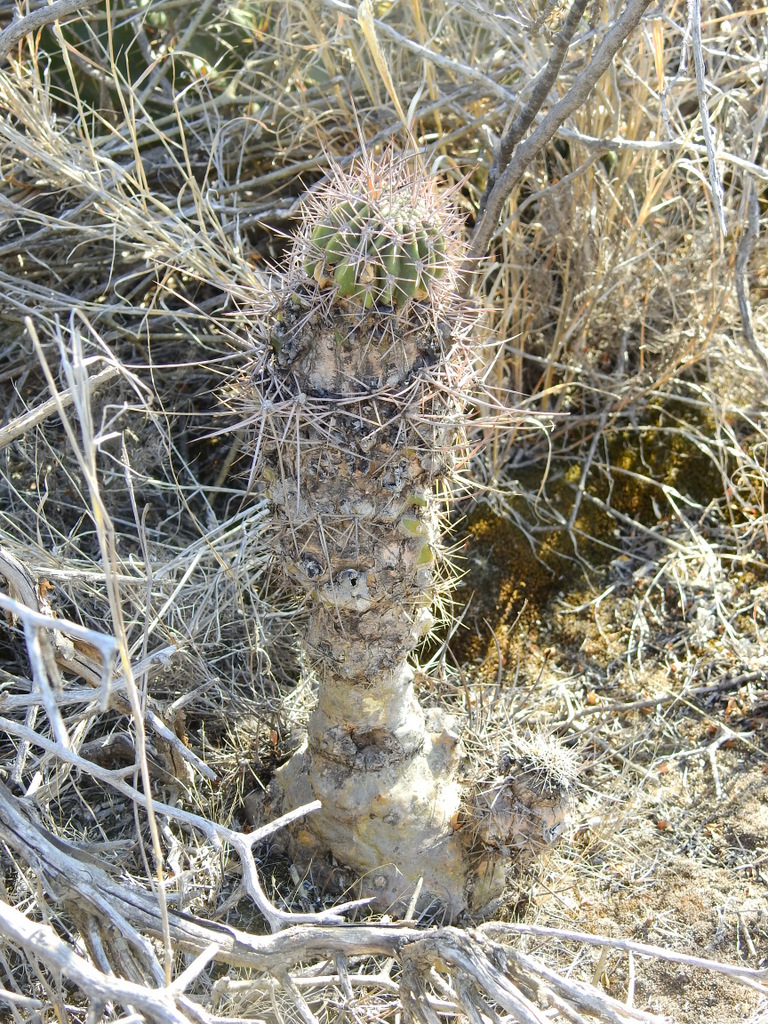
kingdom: Plantae
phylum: Tracheophyta
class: Magnoliopsida
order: Caryophyllales
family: Cactaceae
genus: Acanthocalycium
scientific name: Acanthocalycium leucanthum
